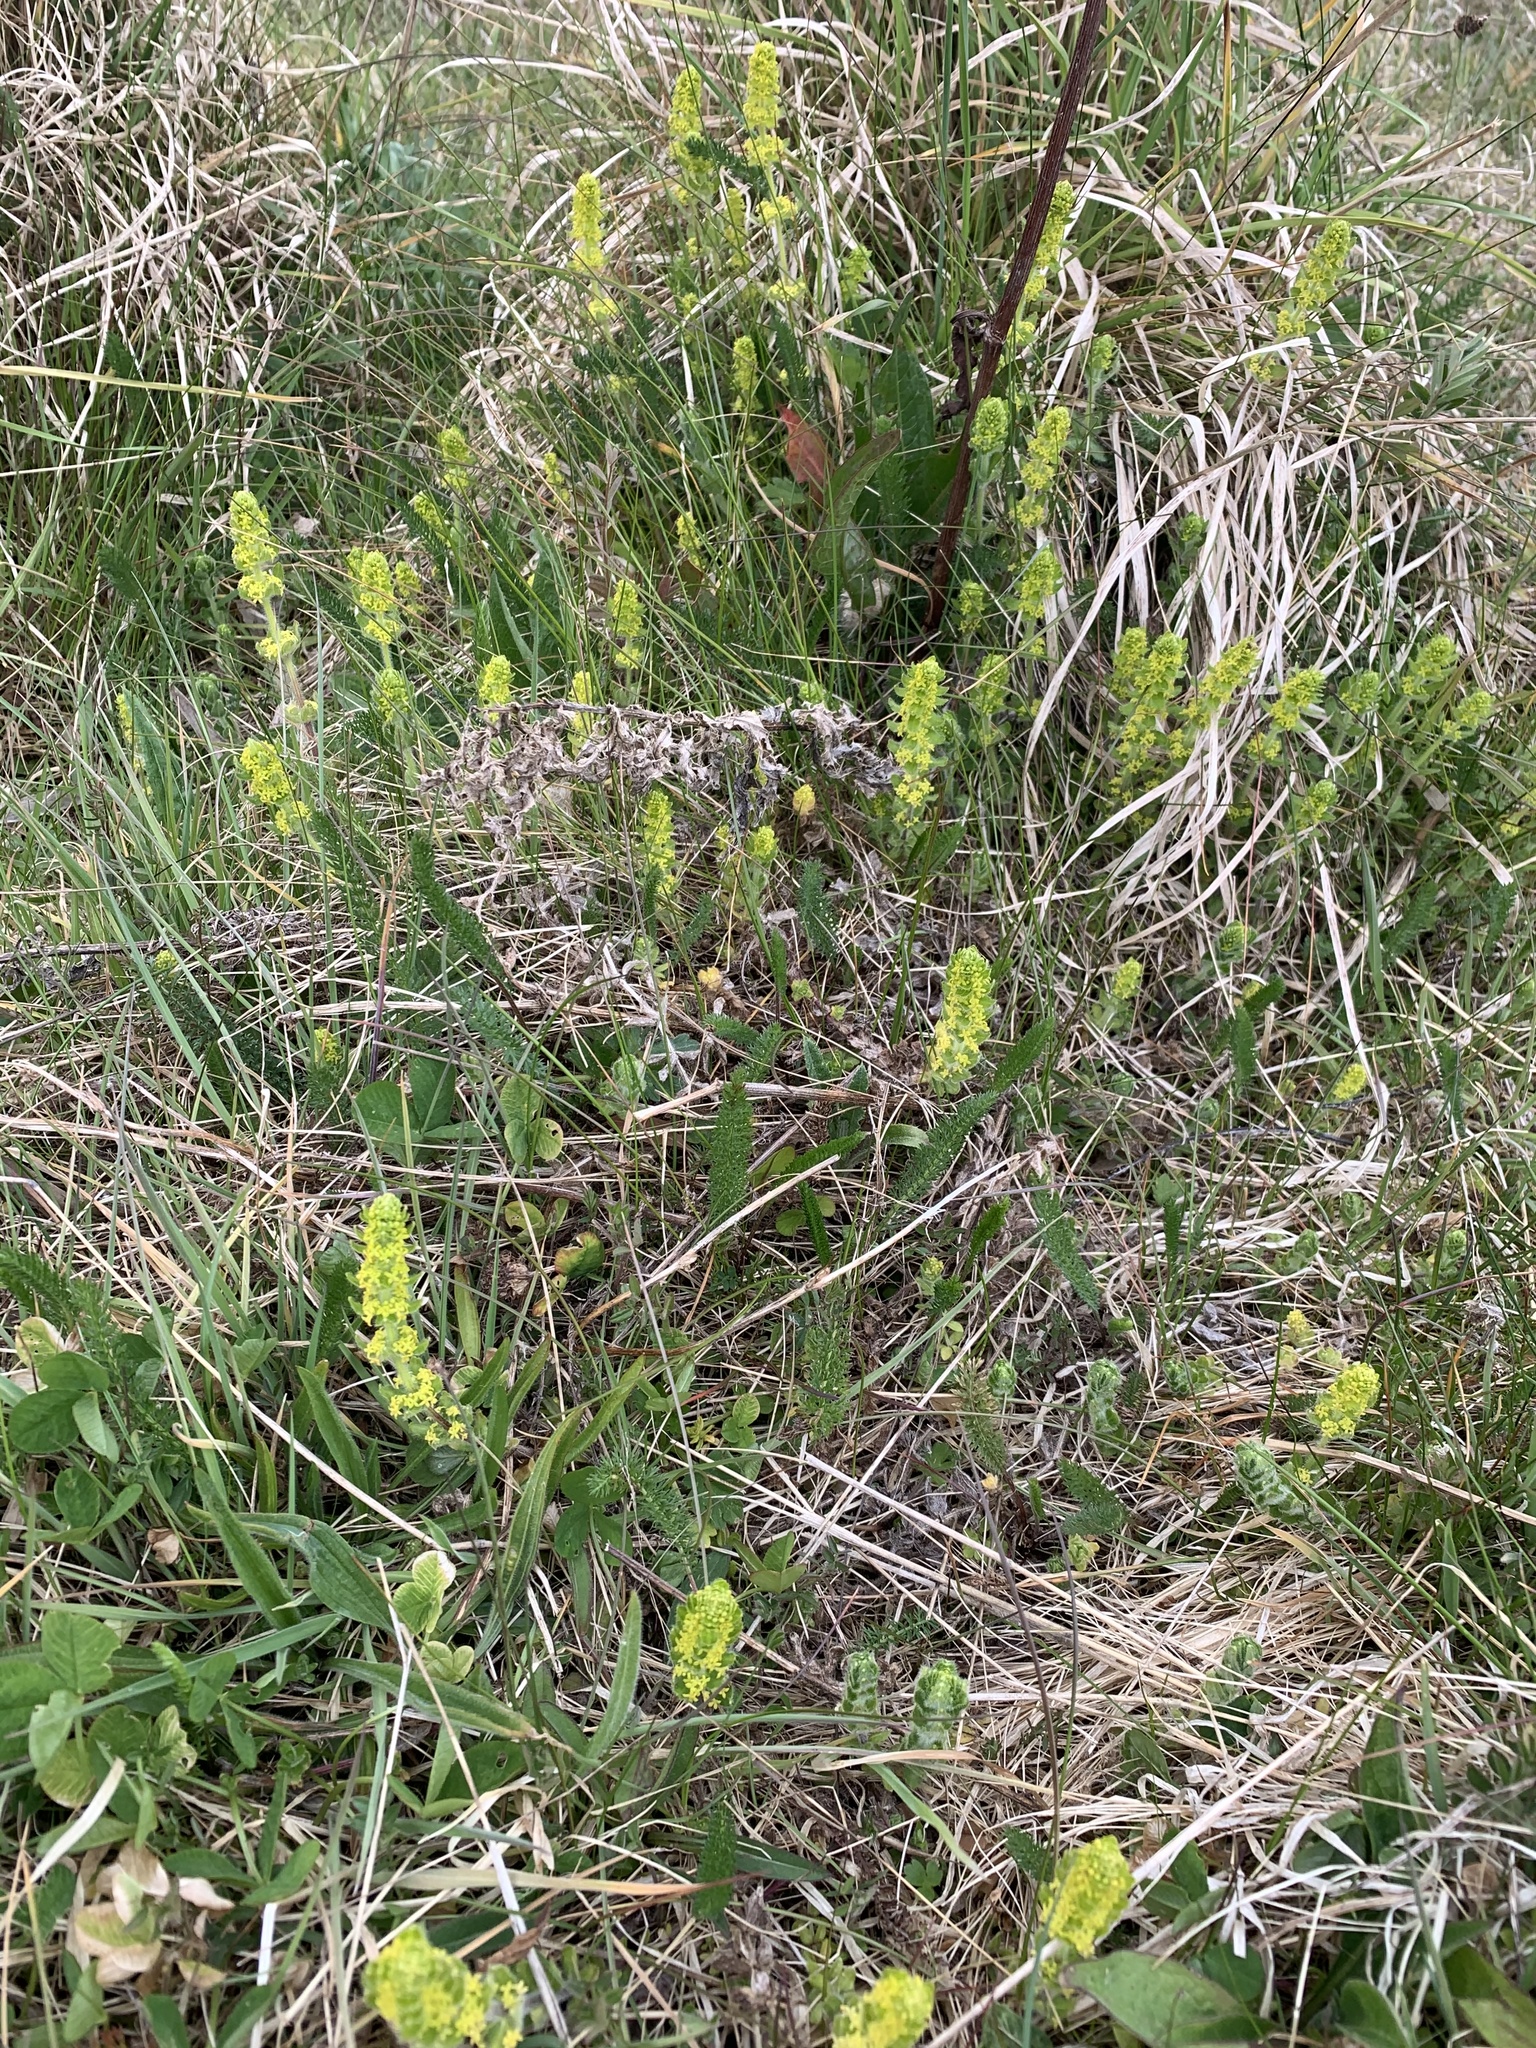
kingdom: Plantae
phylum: Tracheophyta
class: Magnoliopsida
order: Gentianales
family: Rubiaceae
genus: Cruciata
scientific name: Cruciata laevipes
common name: Crosswort
